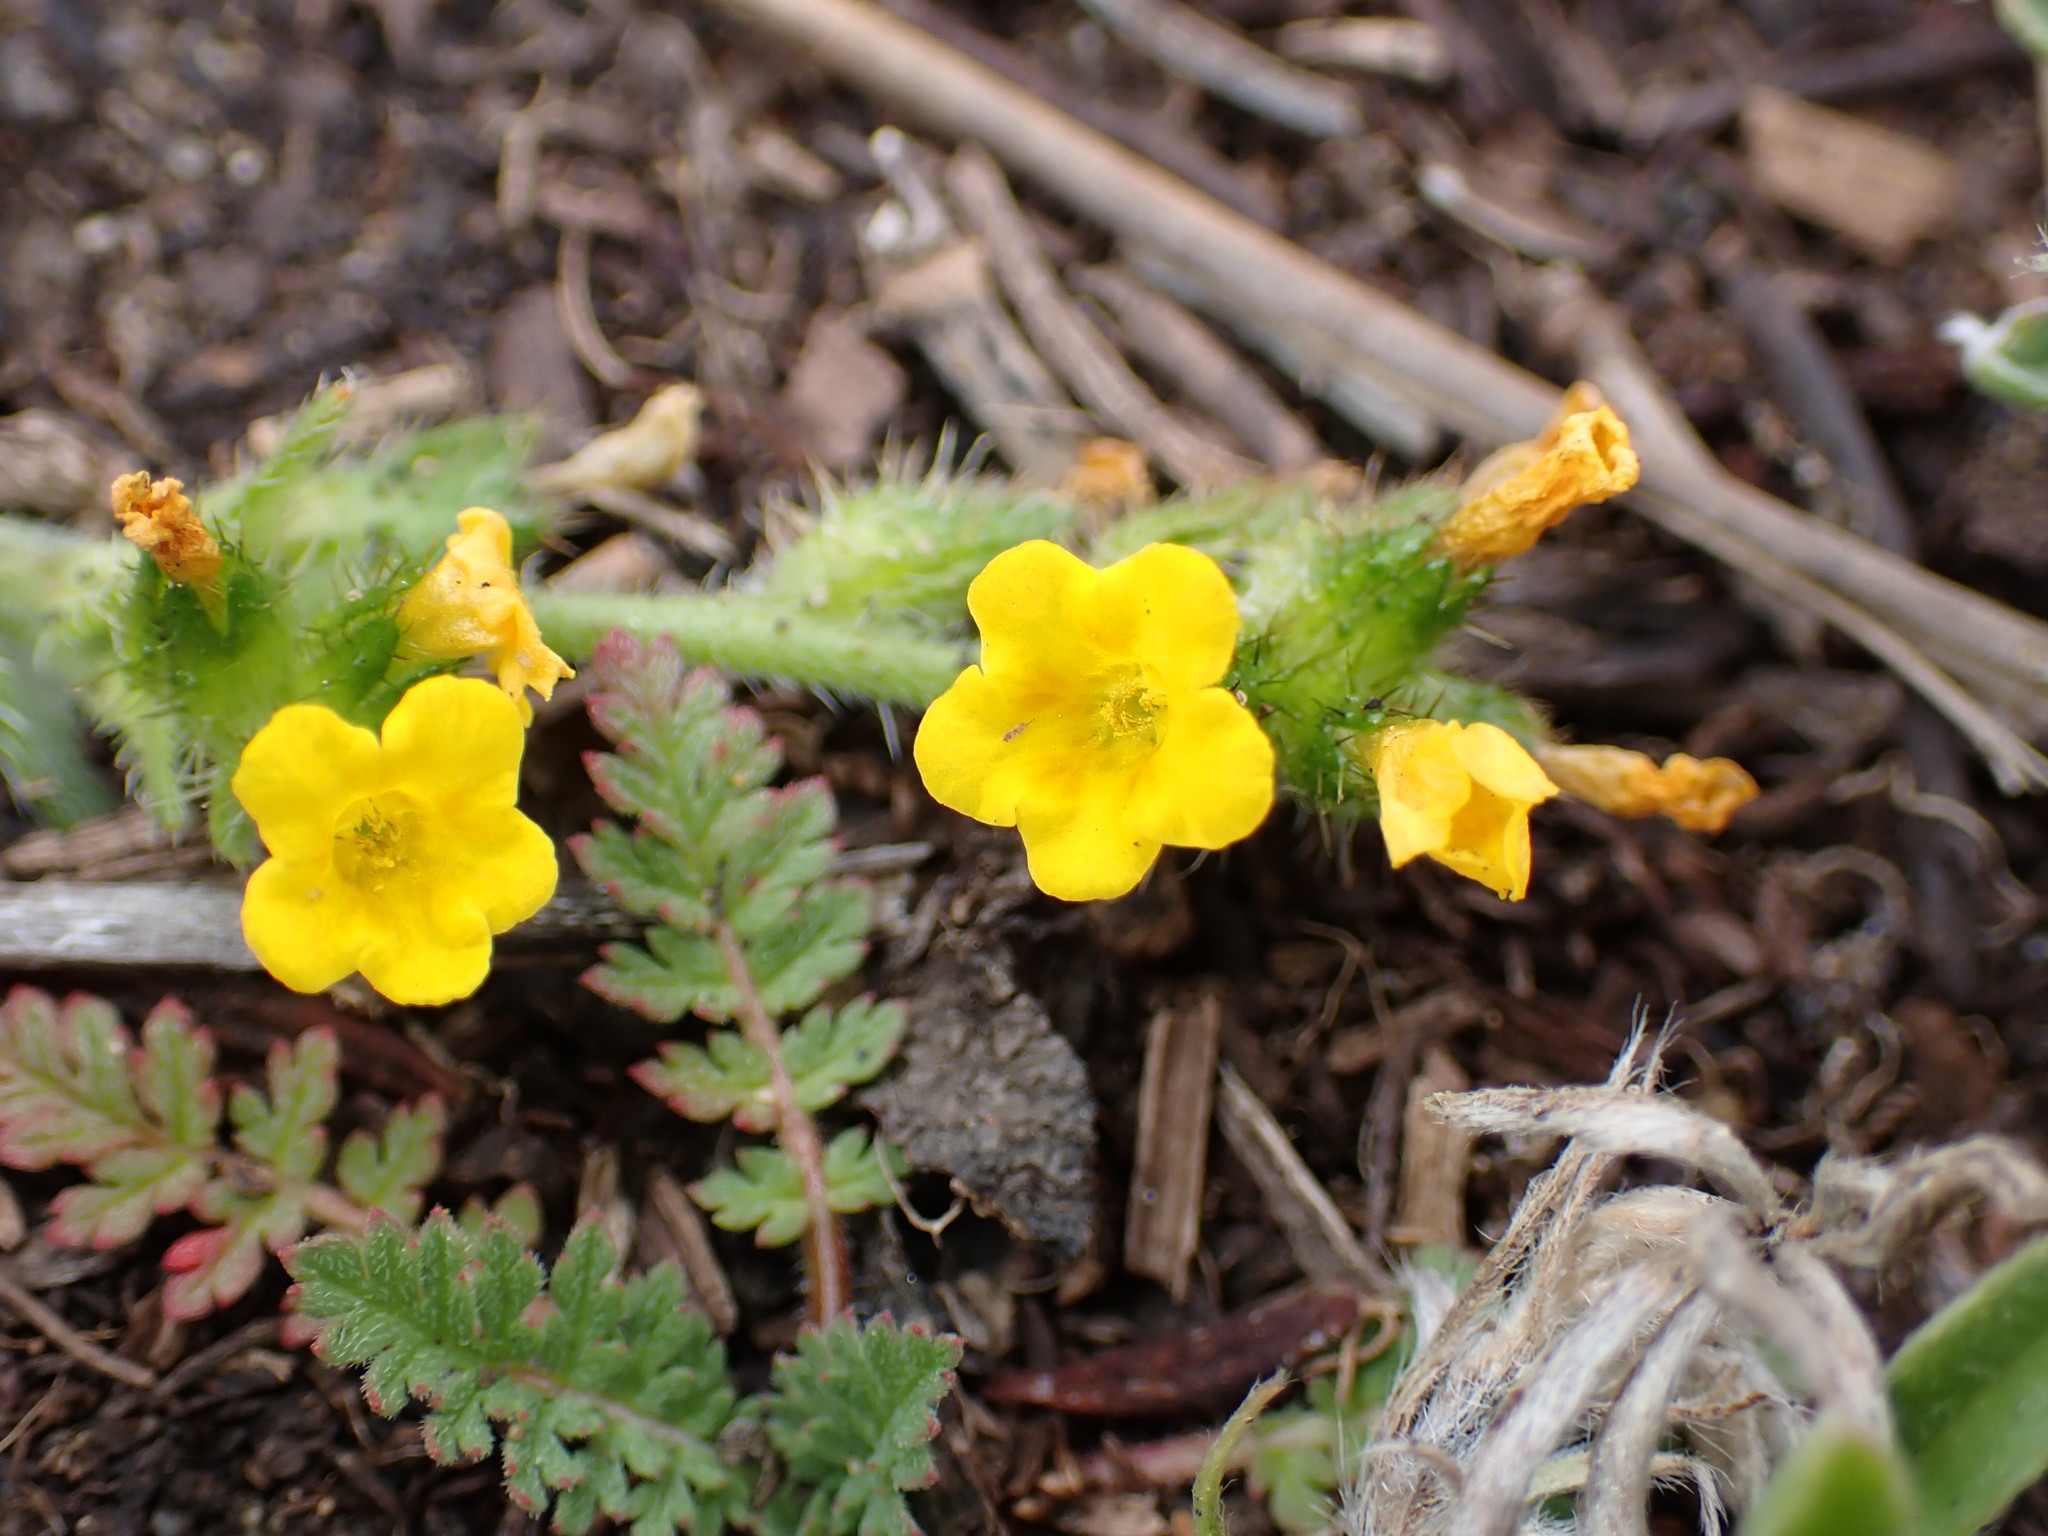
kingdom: Plantae
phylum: Tracheophyta
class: Magnoliopsida
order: Boraginales
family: Boraginaceae
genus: Amsinckia
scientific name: Amsinckia spectabilis
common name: Seaside fiddleneck
